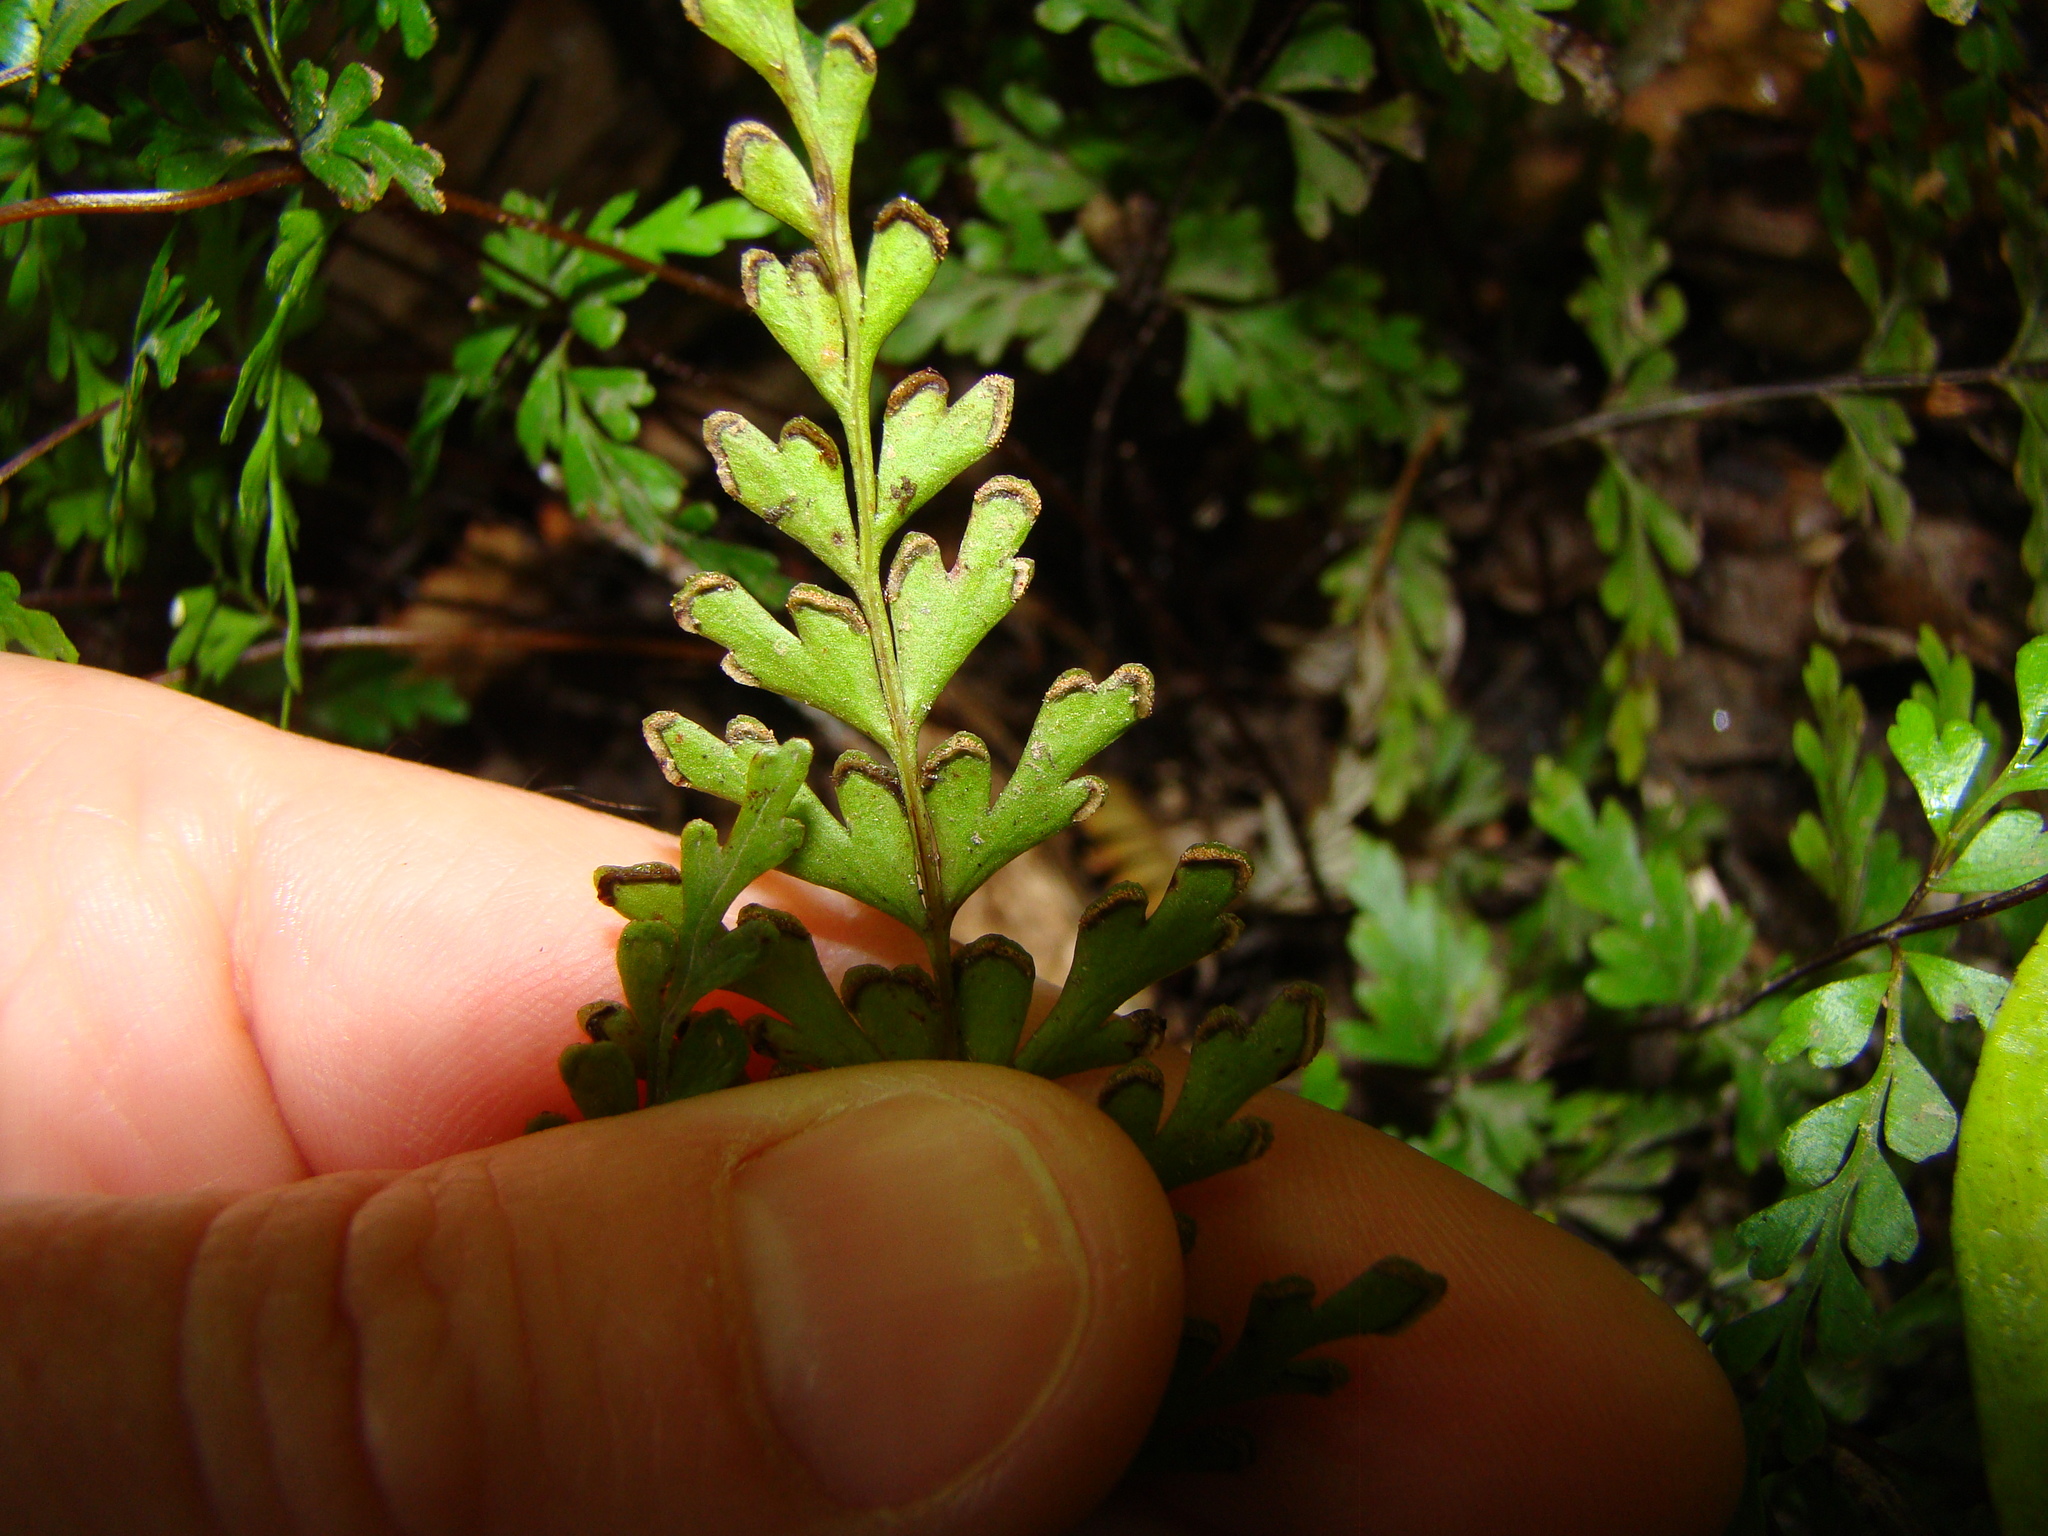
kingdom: Plantae
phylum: Tracheophyta
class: Polypodiopsida
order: Polypodiales
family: Lindsaeaceae
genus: Lindsaea
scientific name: Lindsaea trichomanoides
